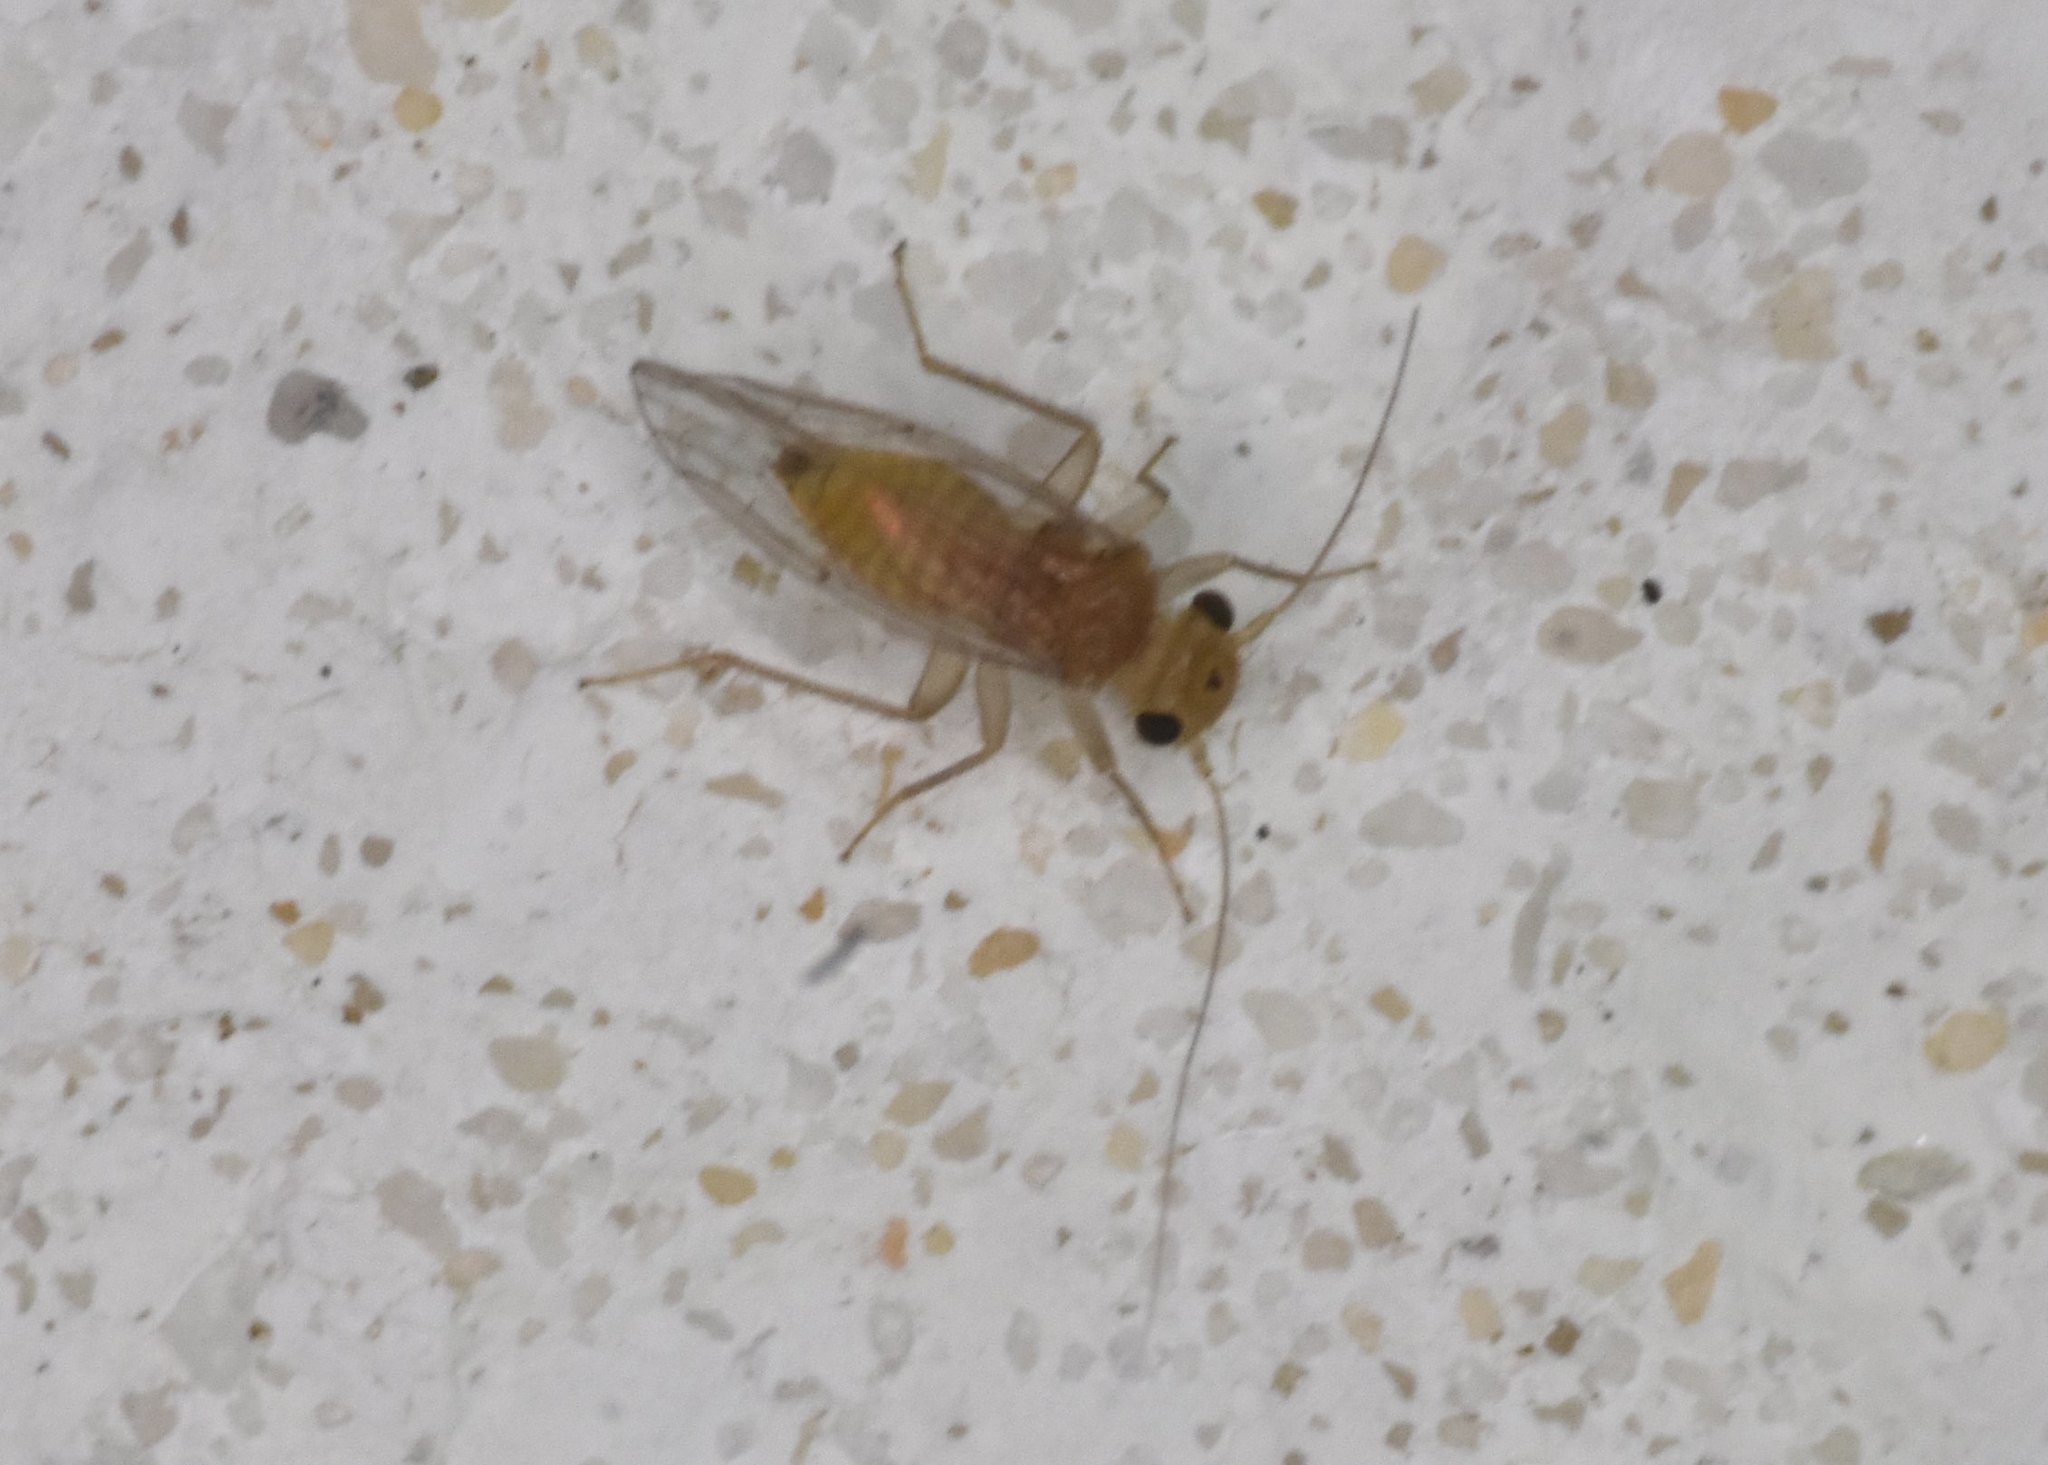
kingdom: Animalia
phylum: Arthropoda
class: Insecta
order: Psocodea
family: Hemipsocidae
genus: Hemipsocus
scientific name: Hemipsocus chloroticus
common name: Book louse
